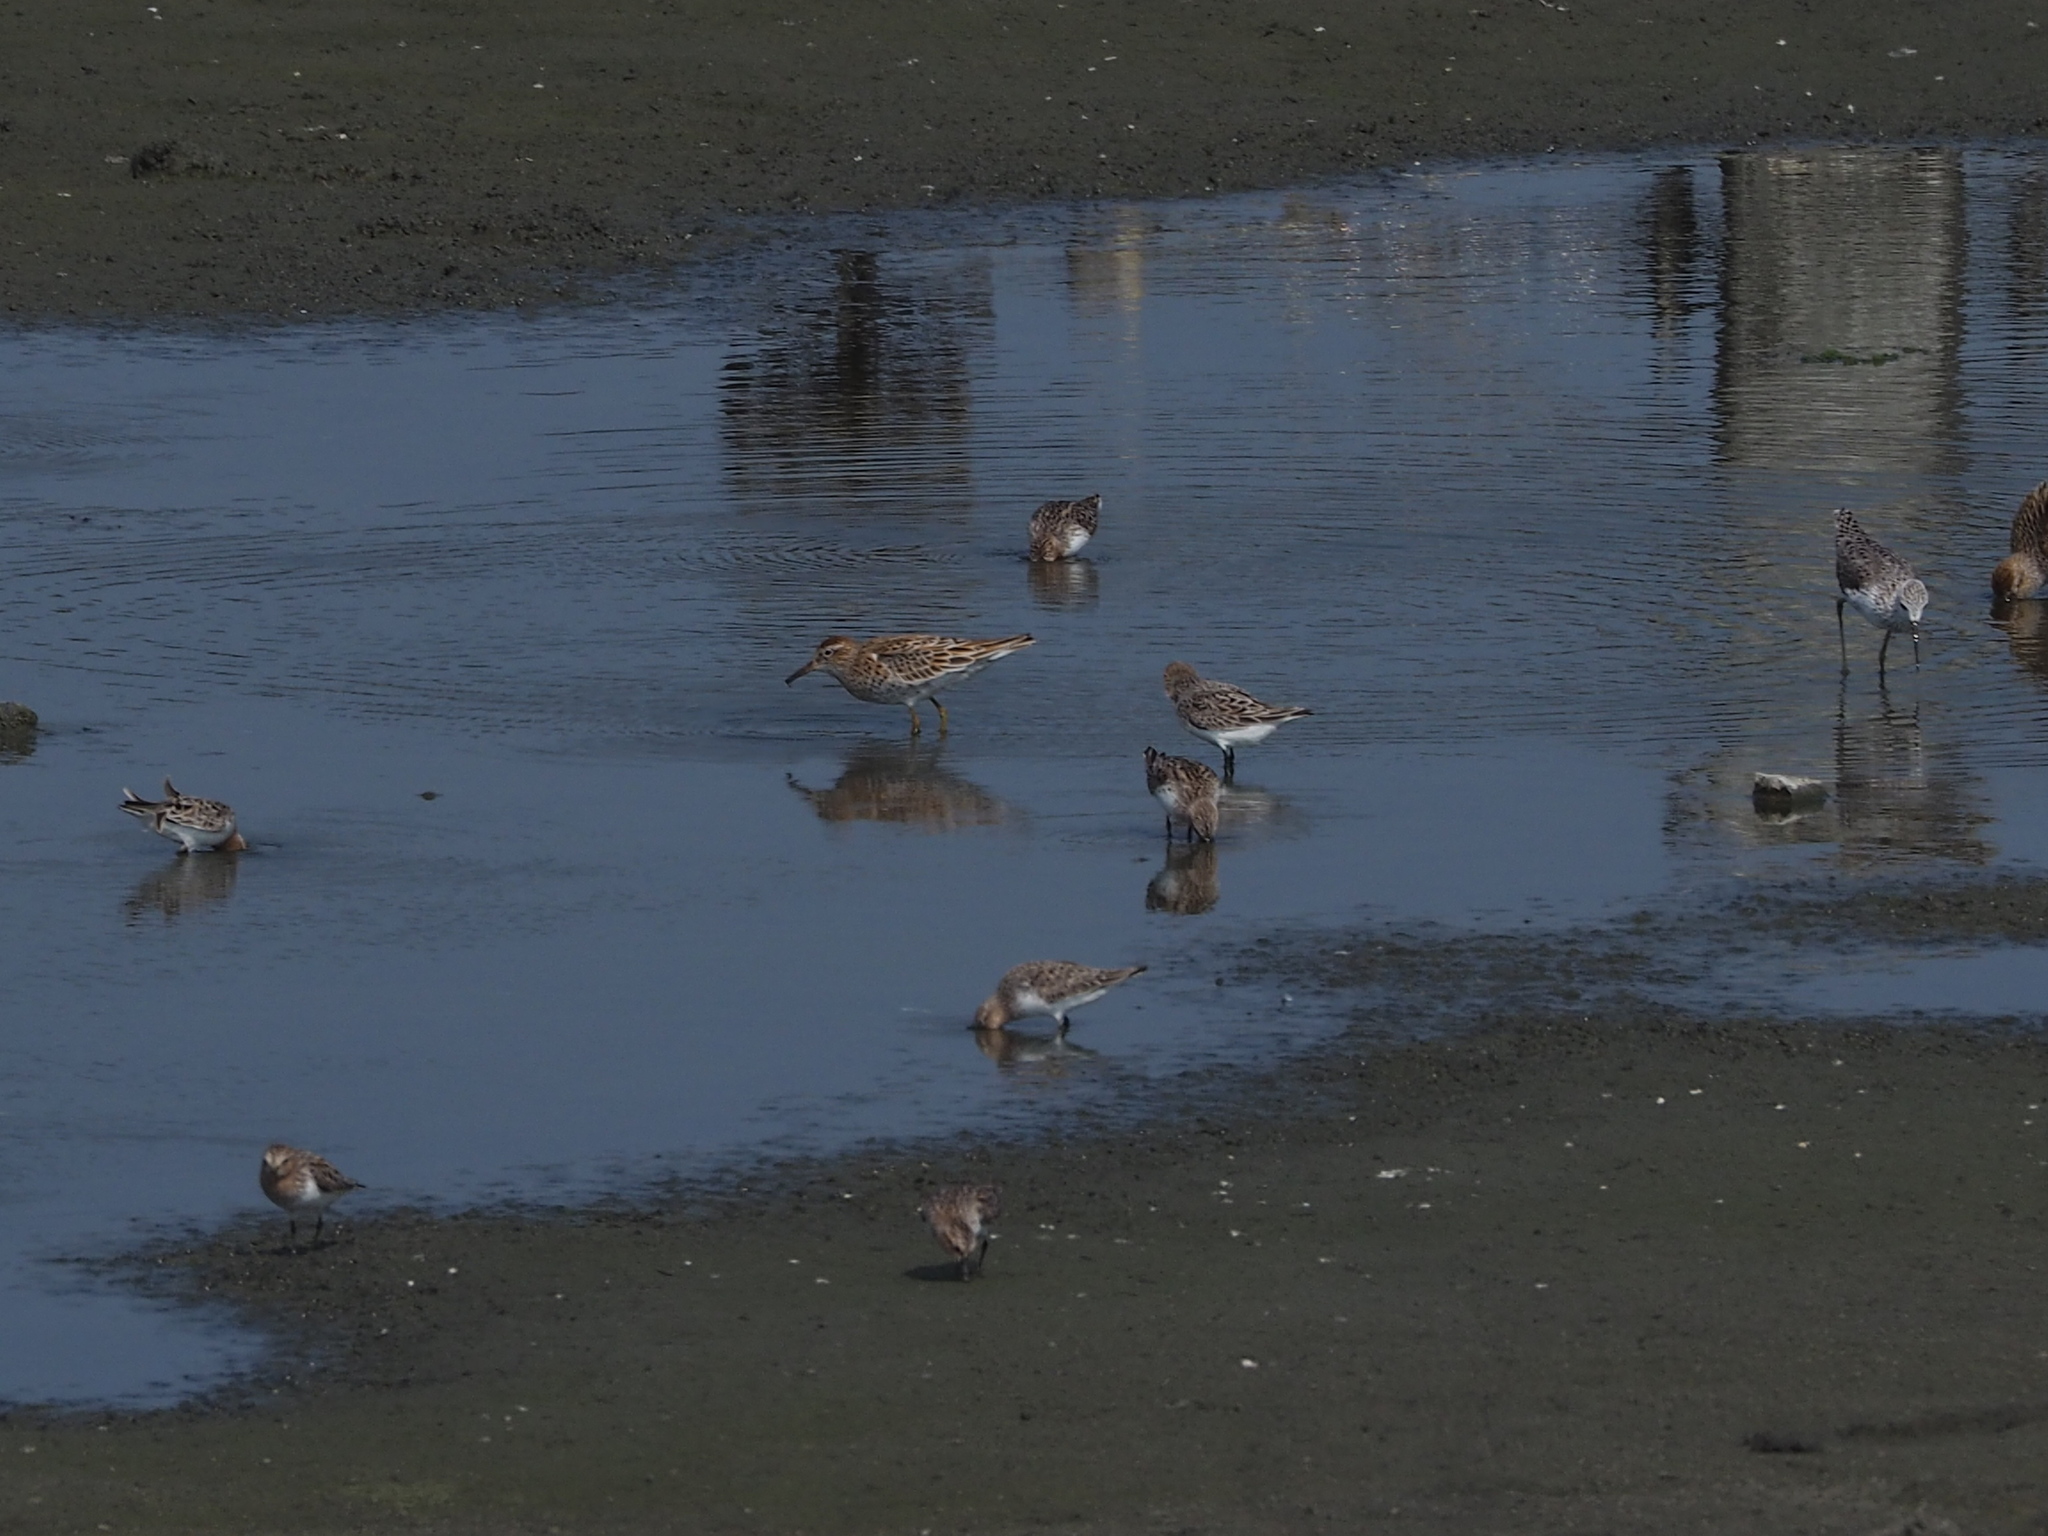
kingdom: Animalia
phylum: Chordata
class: Aves
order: Charadriiformes
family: Scolopacidae
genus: Calidris
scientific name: Calidris acuminata
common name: Sharp-tailed sandpiper
